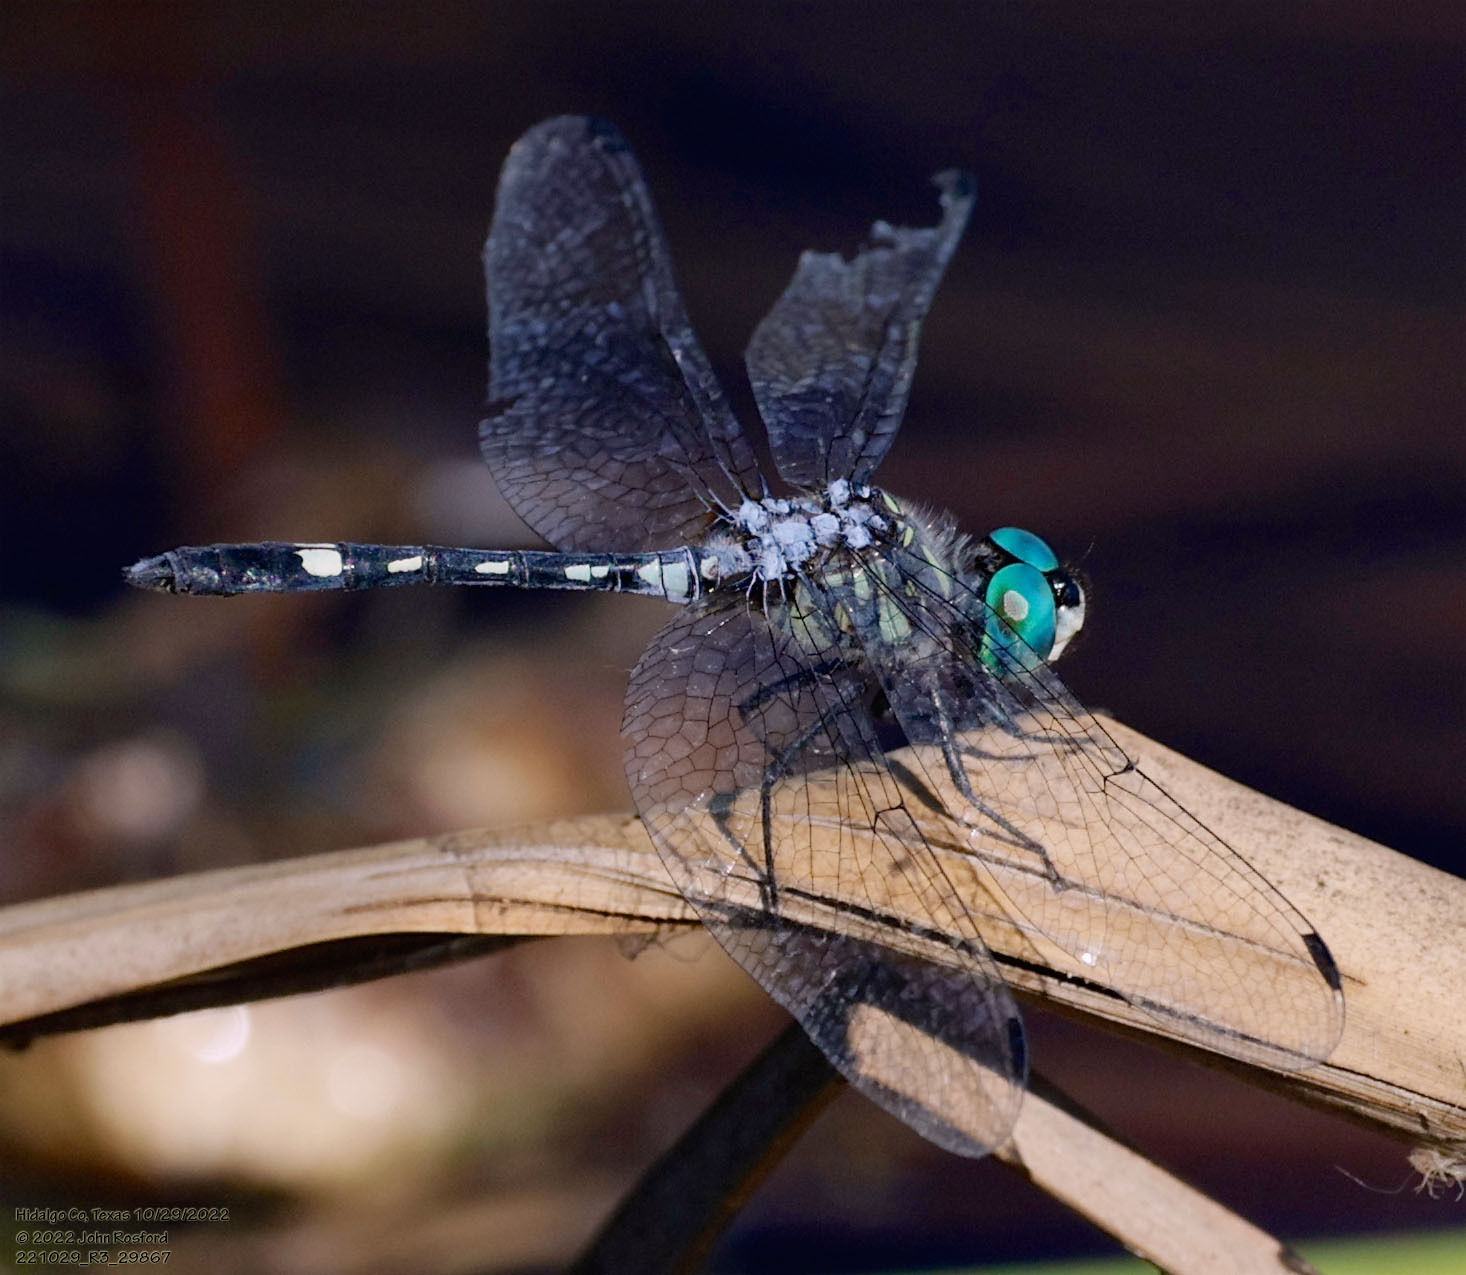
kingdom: Animalia
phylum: Arthropoda
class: Insecta
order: Odonata
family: Libellulidae
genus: Micrathyria
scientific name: Micrathyria hagenii
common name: Thornbush dasher
